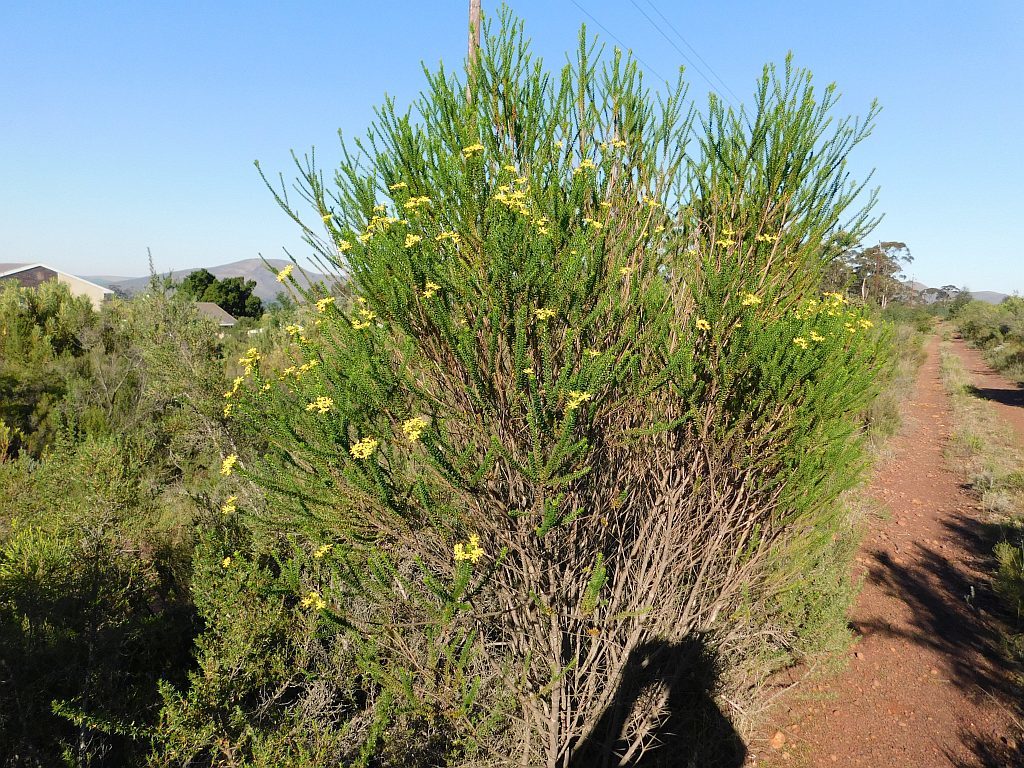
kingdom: Plantae
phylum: Tracheophyta
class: Magnoliopsida
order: Asterales
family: Asteraceae
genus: Euryops
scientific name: Euryops virgineus
